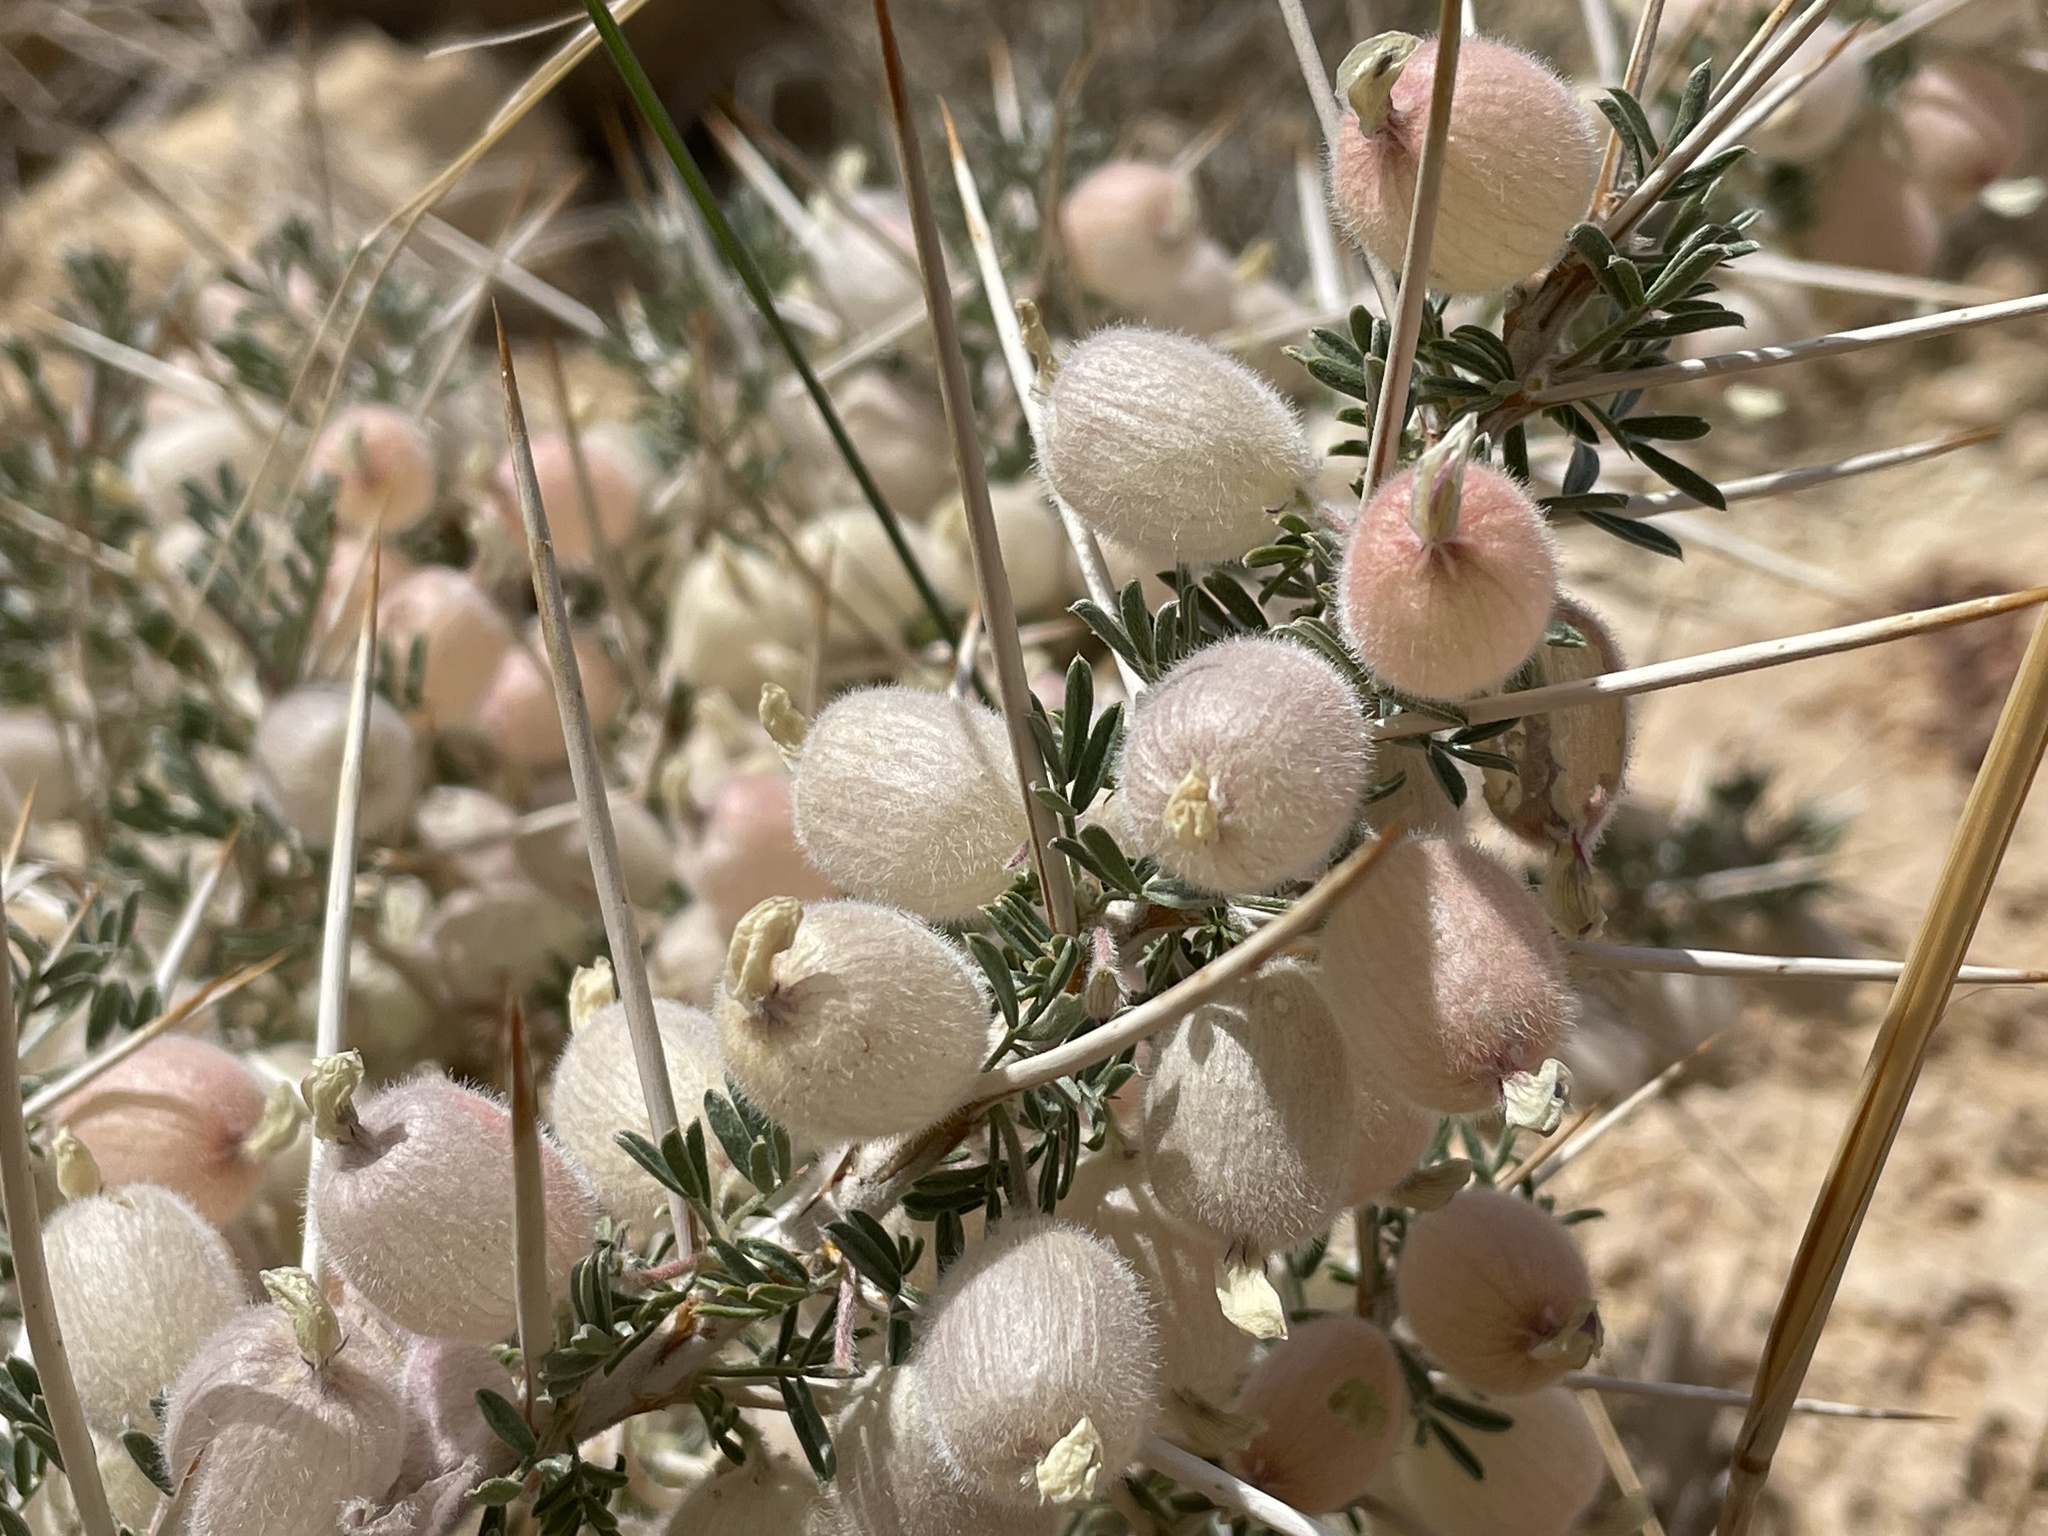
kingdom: Plantae
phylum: Tracheophyta
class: Magnoliopsida
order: Fabales
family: Fabaceae
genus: Astragalus
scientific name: Astragalus spinosus
